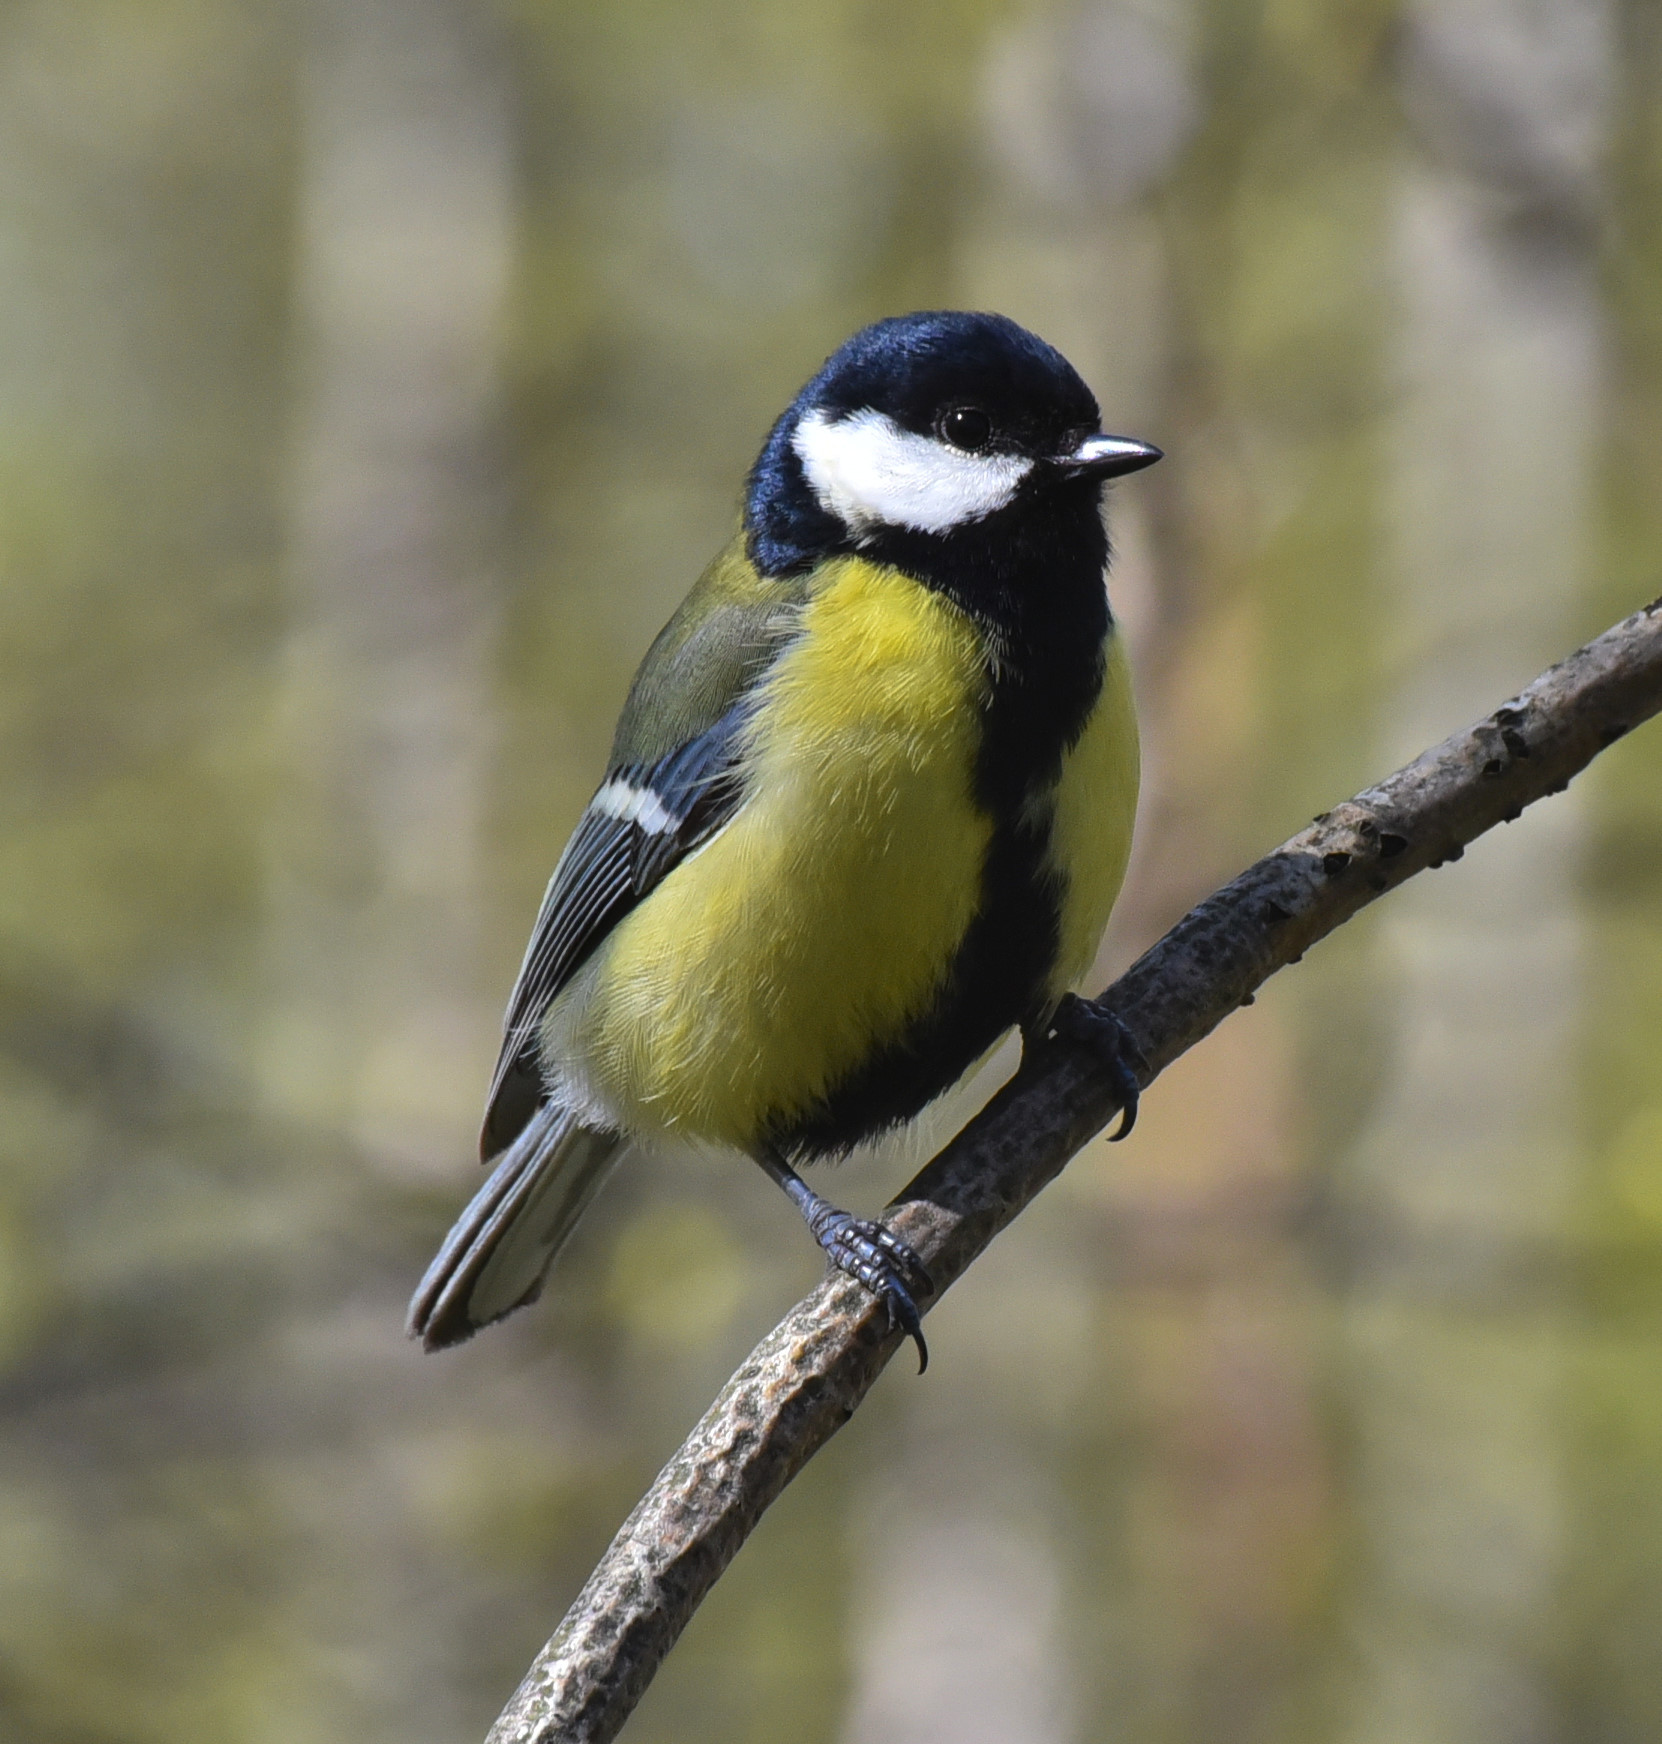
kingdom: Animalia
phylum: Chordata
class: Aves
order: Passeriformes
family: Paridae
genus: Parus
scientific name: Parus major
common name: Great tit
